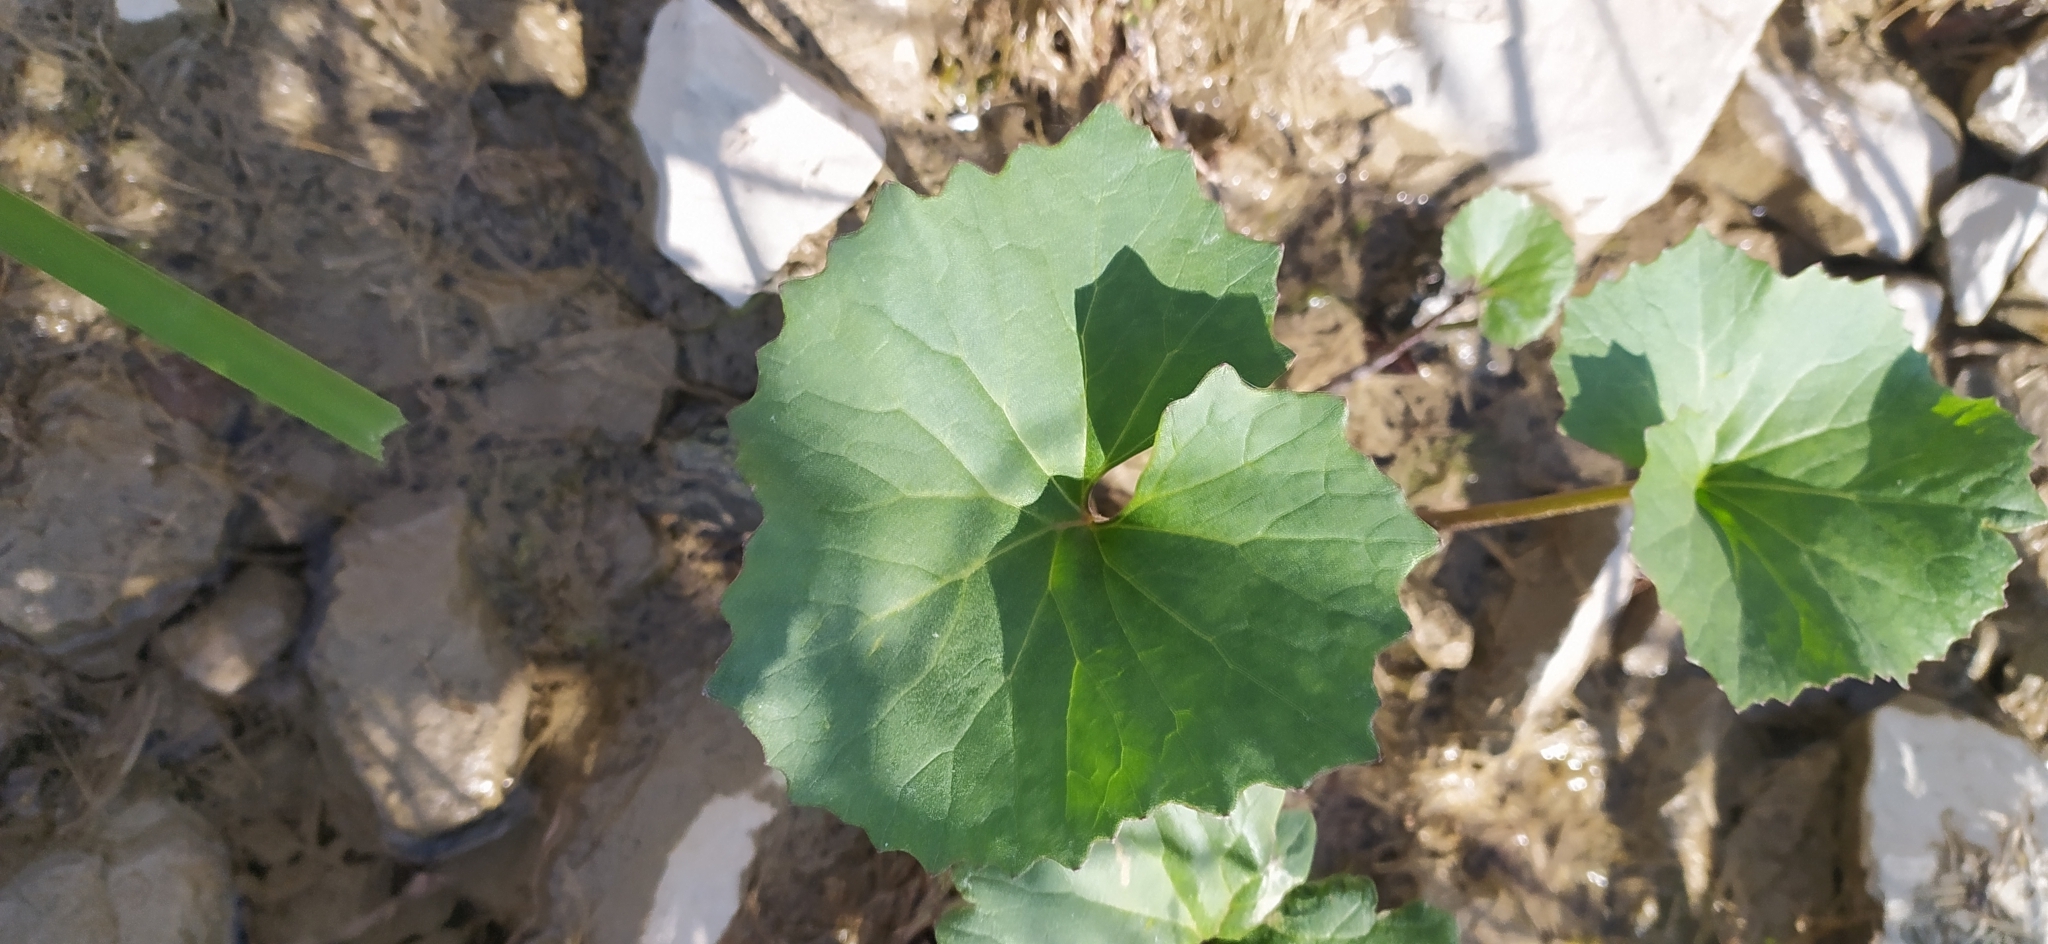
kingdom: Plantae
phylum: Tracheophyta
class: Magnoliopsida
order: Asterales
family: Asteraceae
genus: Petasites
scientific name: Petasites radiatus
